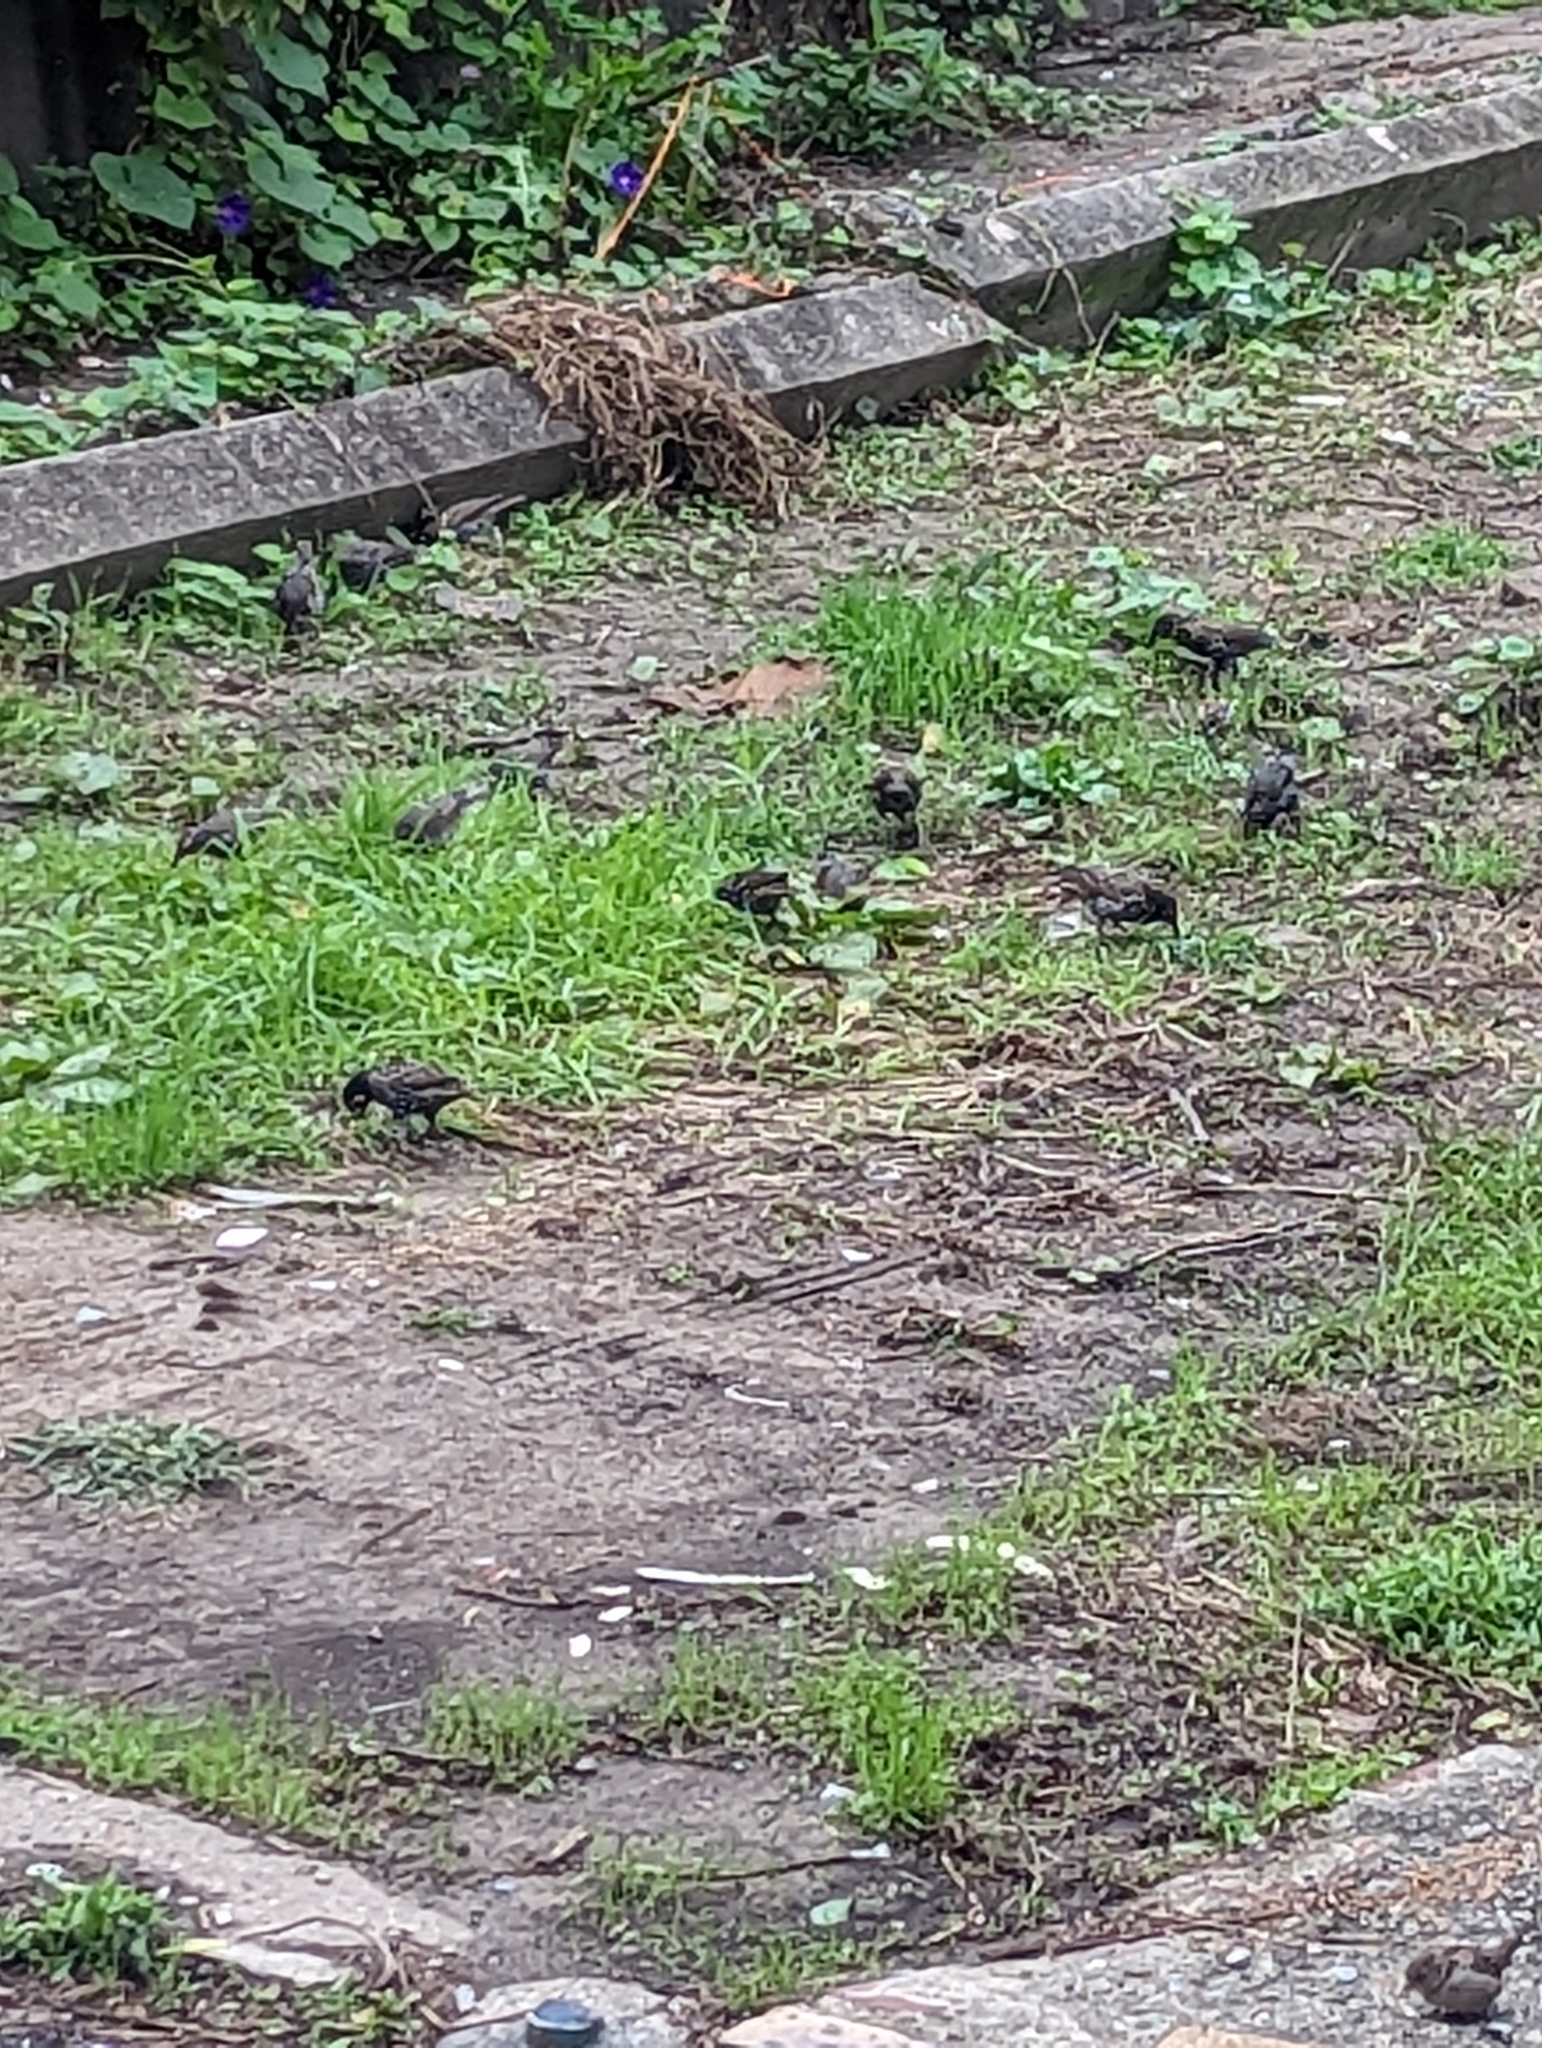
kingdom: Animalia
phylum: Chordata
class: Aves
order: Passeriformes
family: Sturnidae
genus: Sturnus
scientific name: Sturnus vulgaris
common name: Common starling
